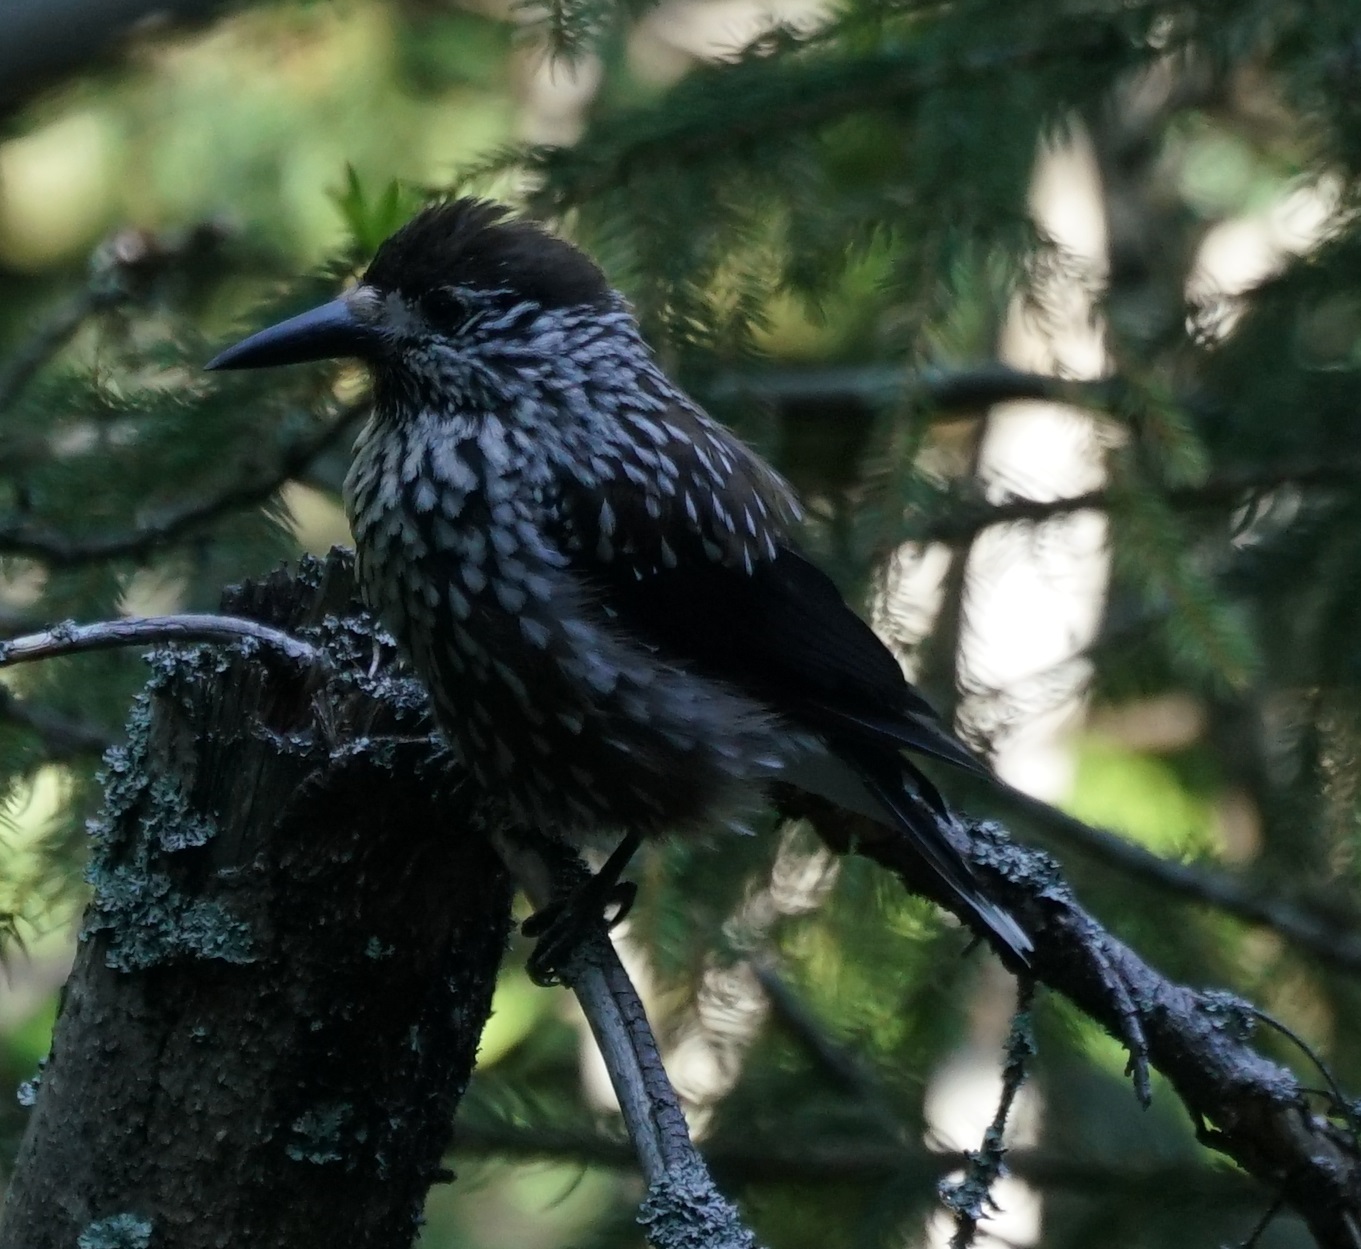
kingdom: Animalia
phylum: Chordata
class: Aves
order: Passeriformes
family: Corvidae
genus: Nucifraga
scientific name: Nucifraga caryocatactes
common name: Spotted nutcracker
